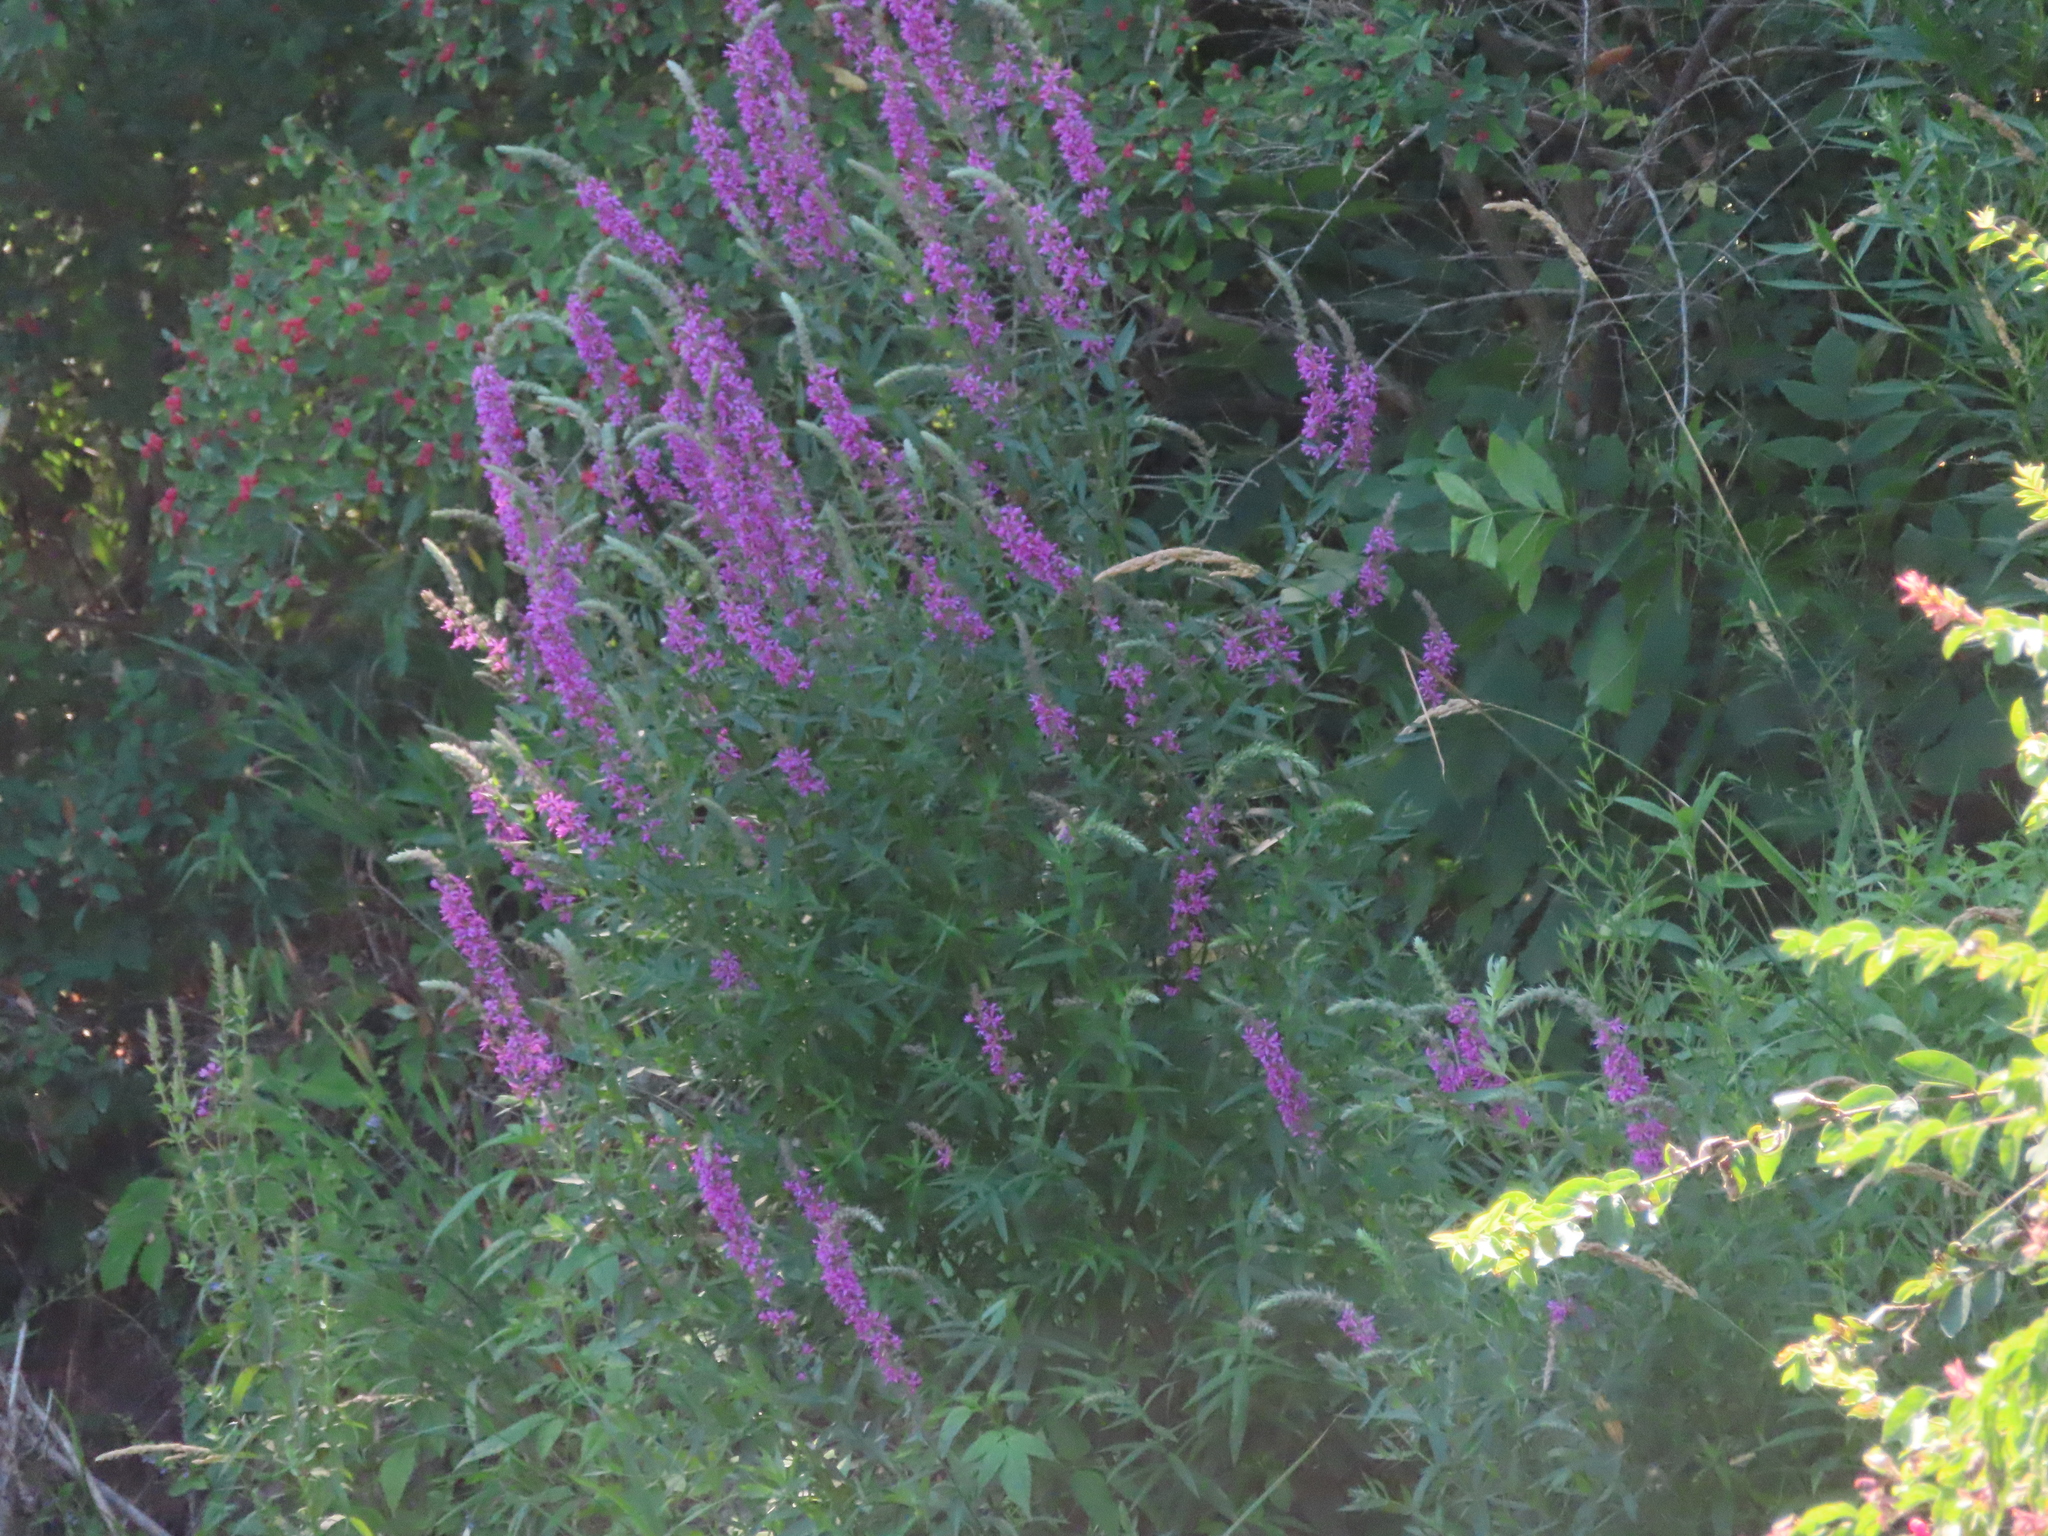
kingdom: Plantae
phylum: Tracheophyta
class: Magnoliopsida
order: Myrtales
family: Lythraceae
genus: Lythrum
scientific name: Lythrum salicaria
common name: Purple loosestrife
